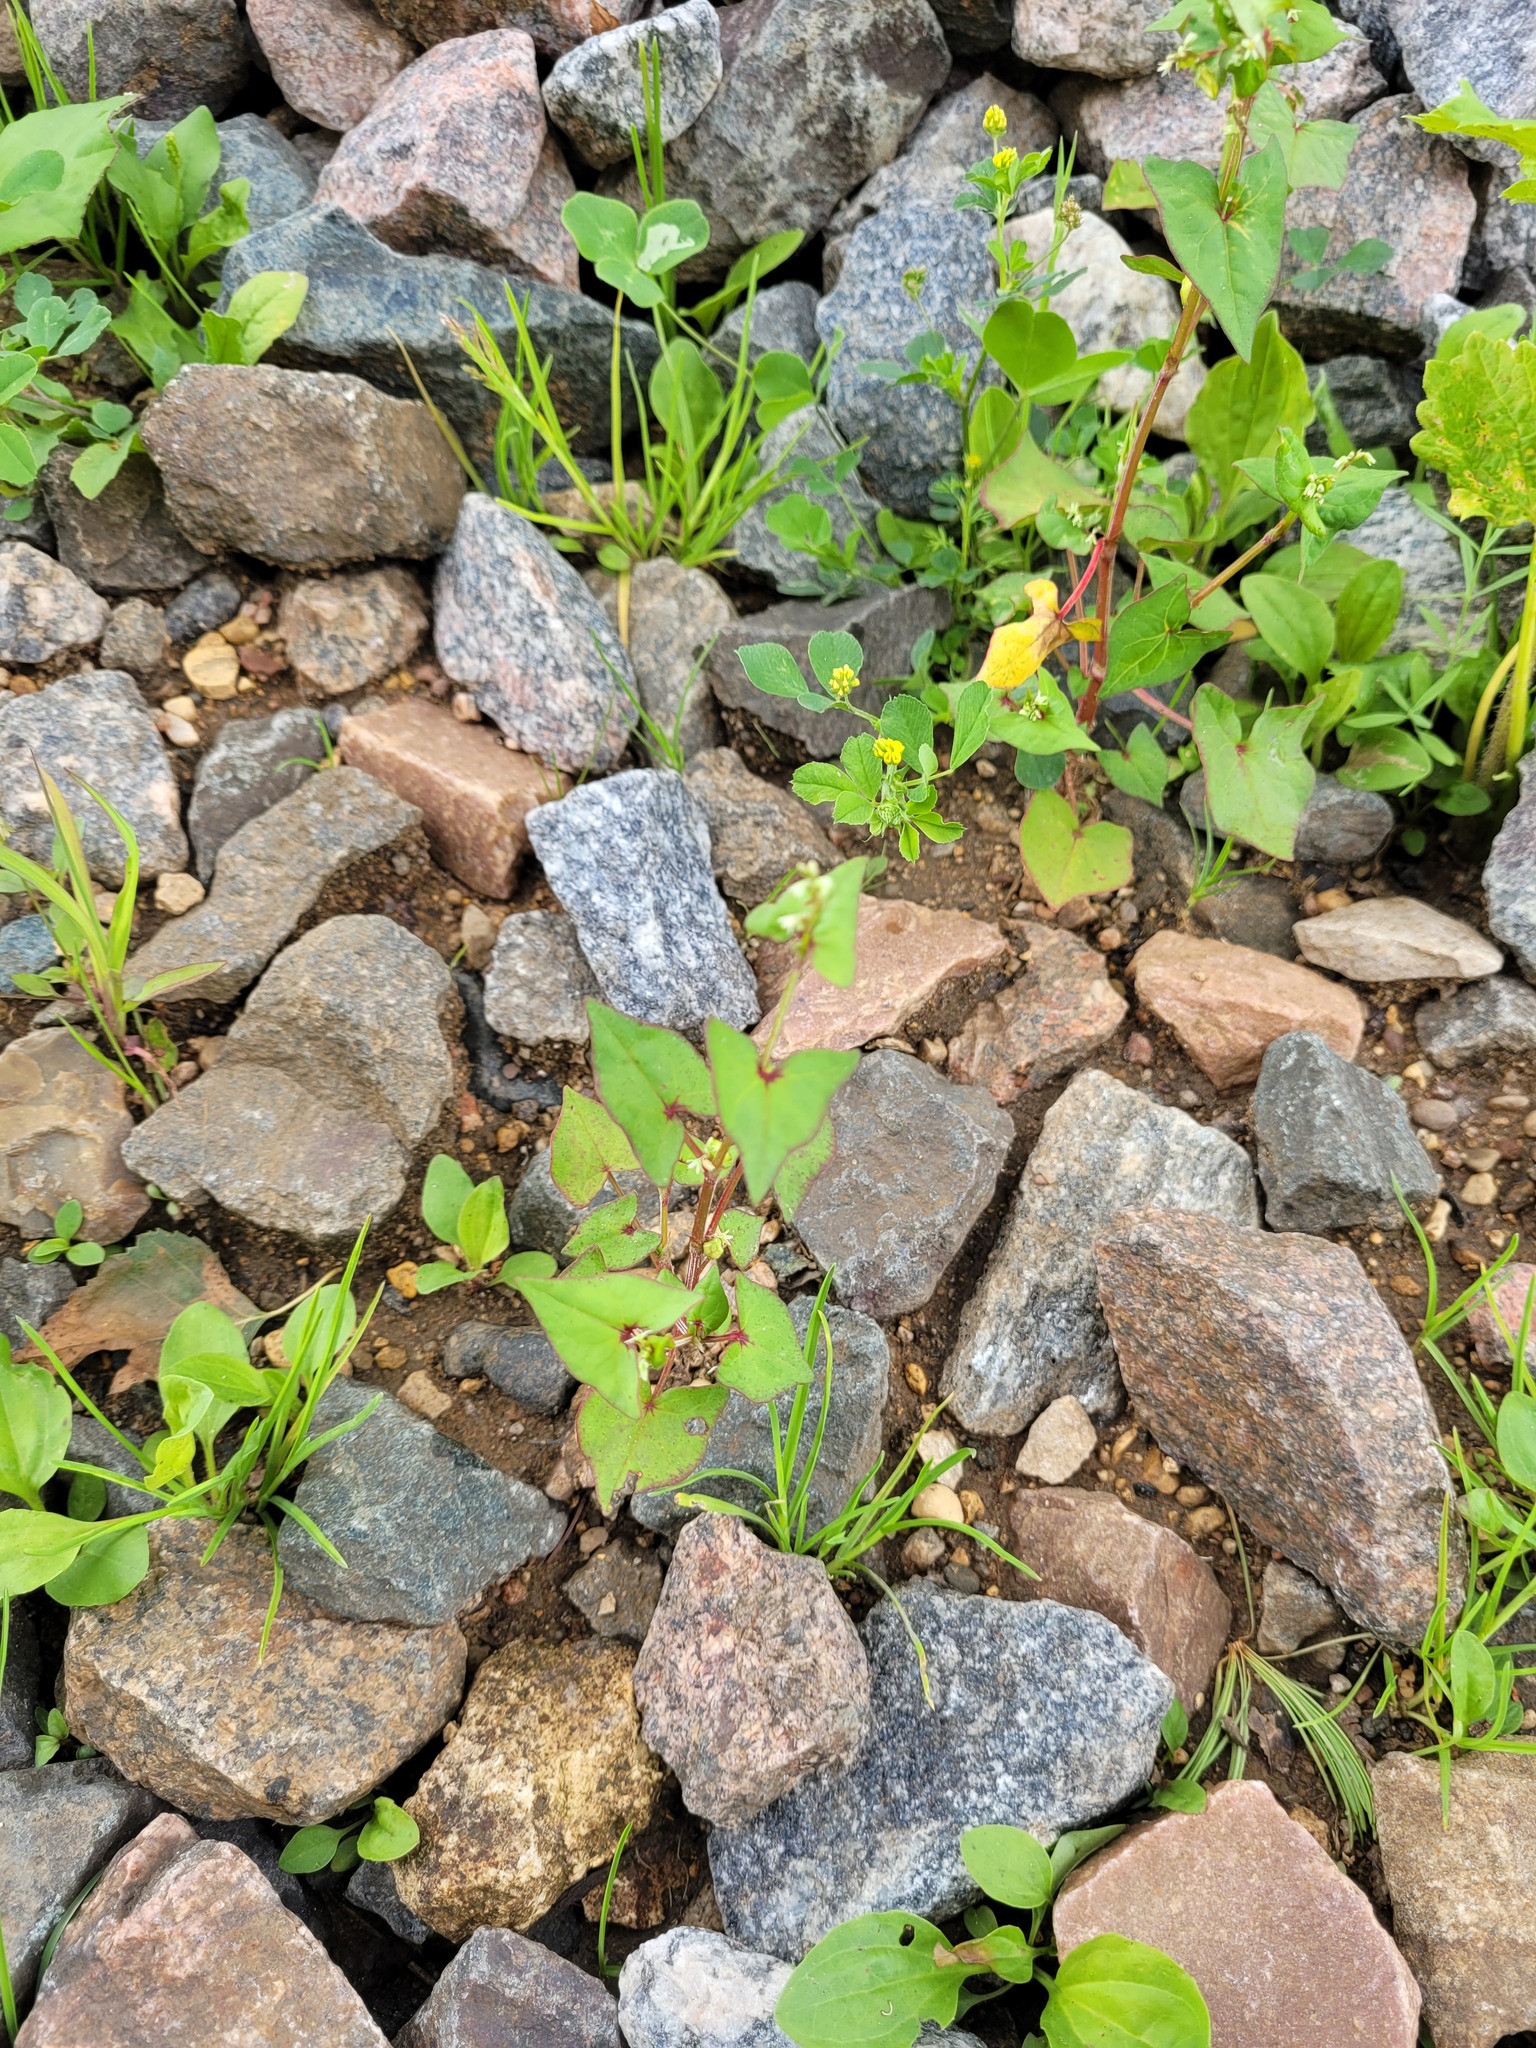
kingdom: Plantae
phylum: Tracheophyta
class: Magnoliopsida
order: Caryophyllales
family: Polygonaceae
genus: Fagopyrum
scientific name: Fagopyrum tataricum
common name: Green buckwheat
